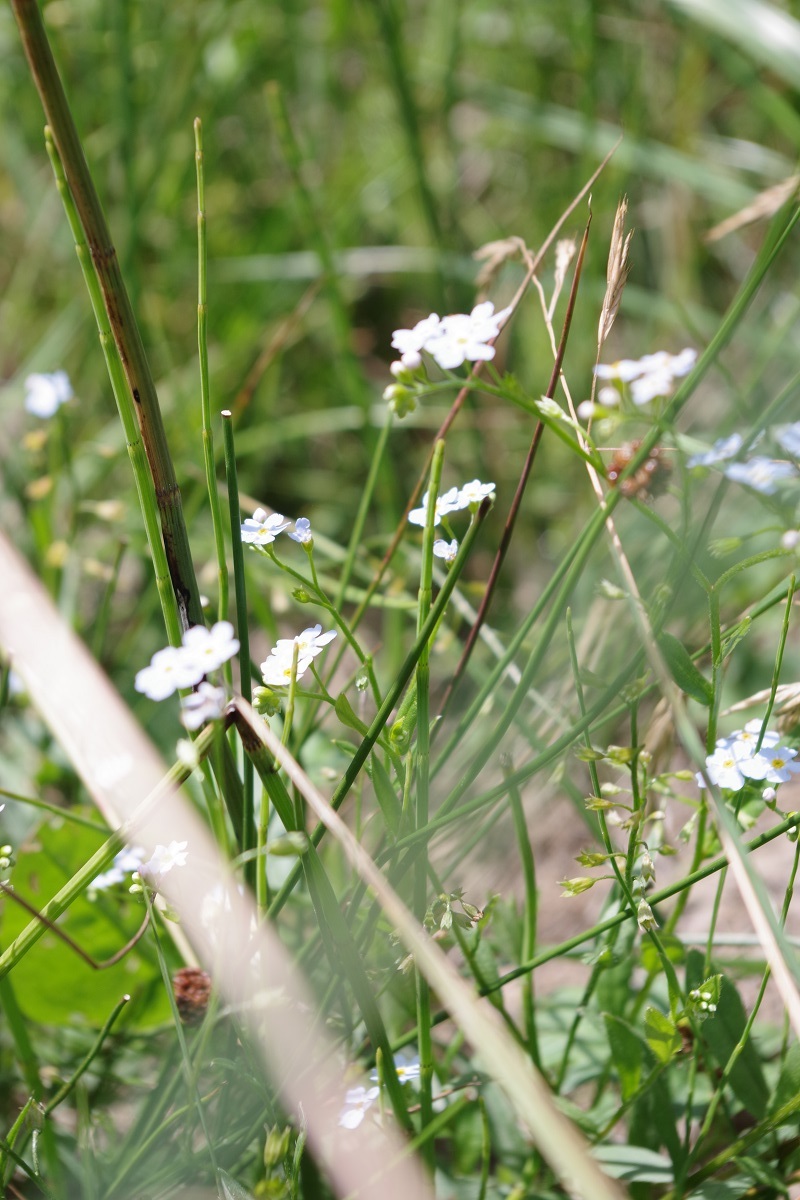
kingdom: Plantae
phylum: Tracheophyta
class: Magnoliopsida
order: Boraginales
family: Boraginaceae
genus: Myosotis
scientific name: Myosotis scorpioides
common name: Water forget-me-not
